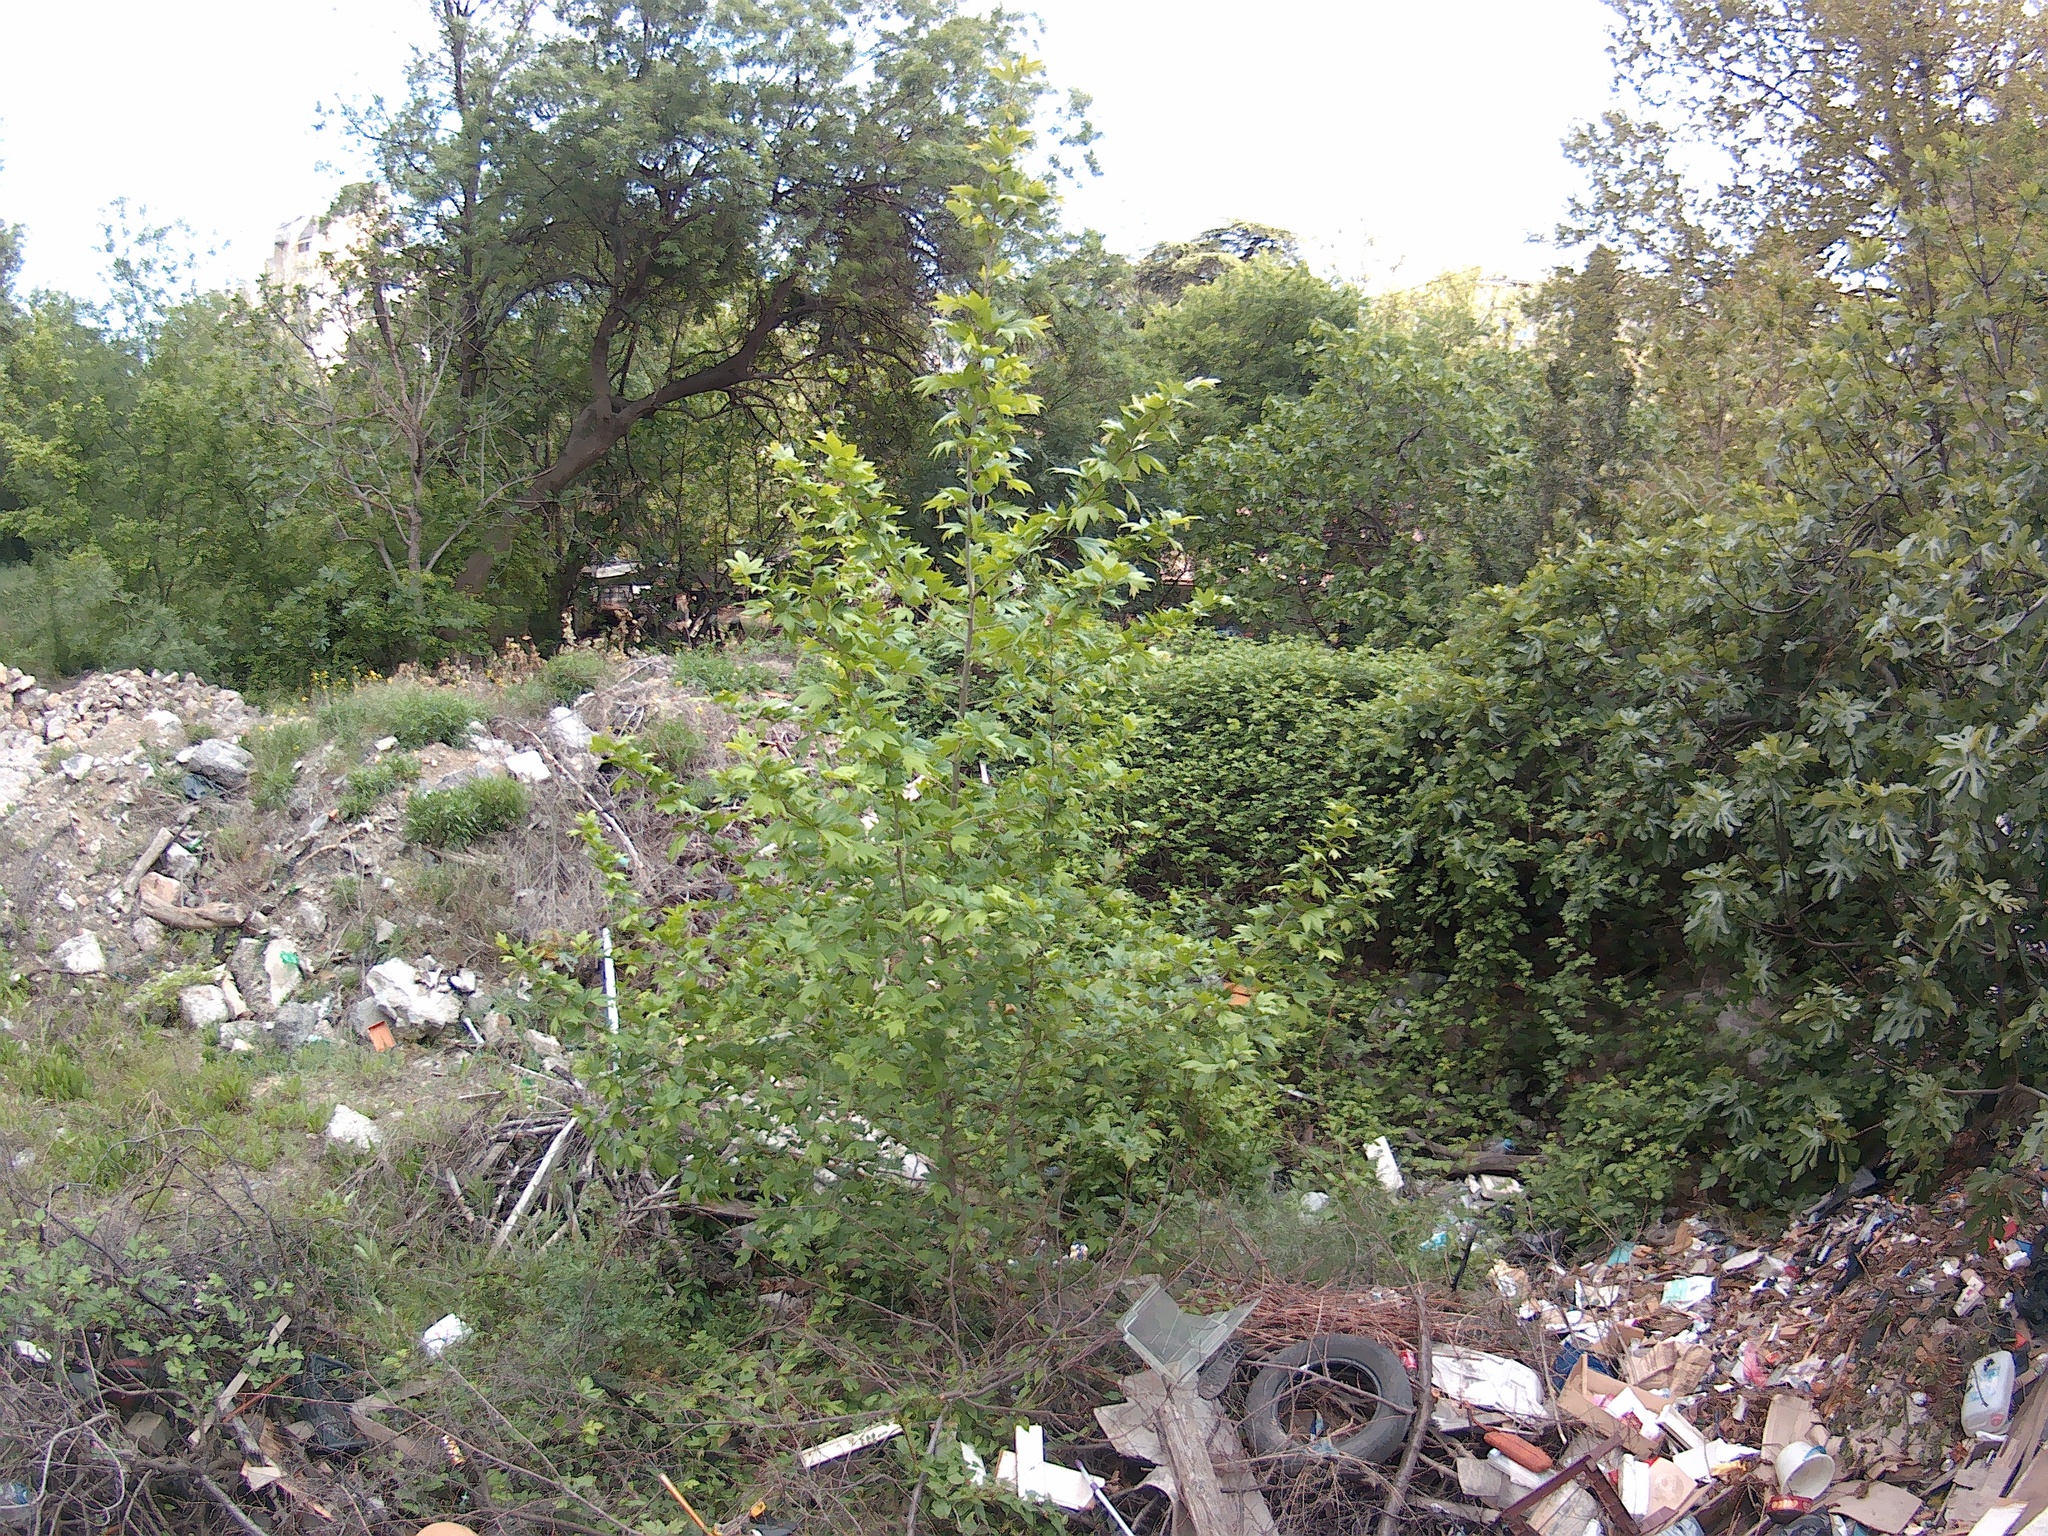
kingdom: Plantae
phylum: Tracheophyta
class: Magnoliopsida
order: Sapindales
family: Sapindaceae
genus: Acer
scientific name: Acer negundo
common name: Ashleaf maple
